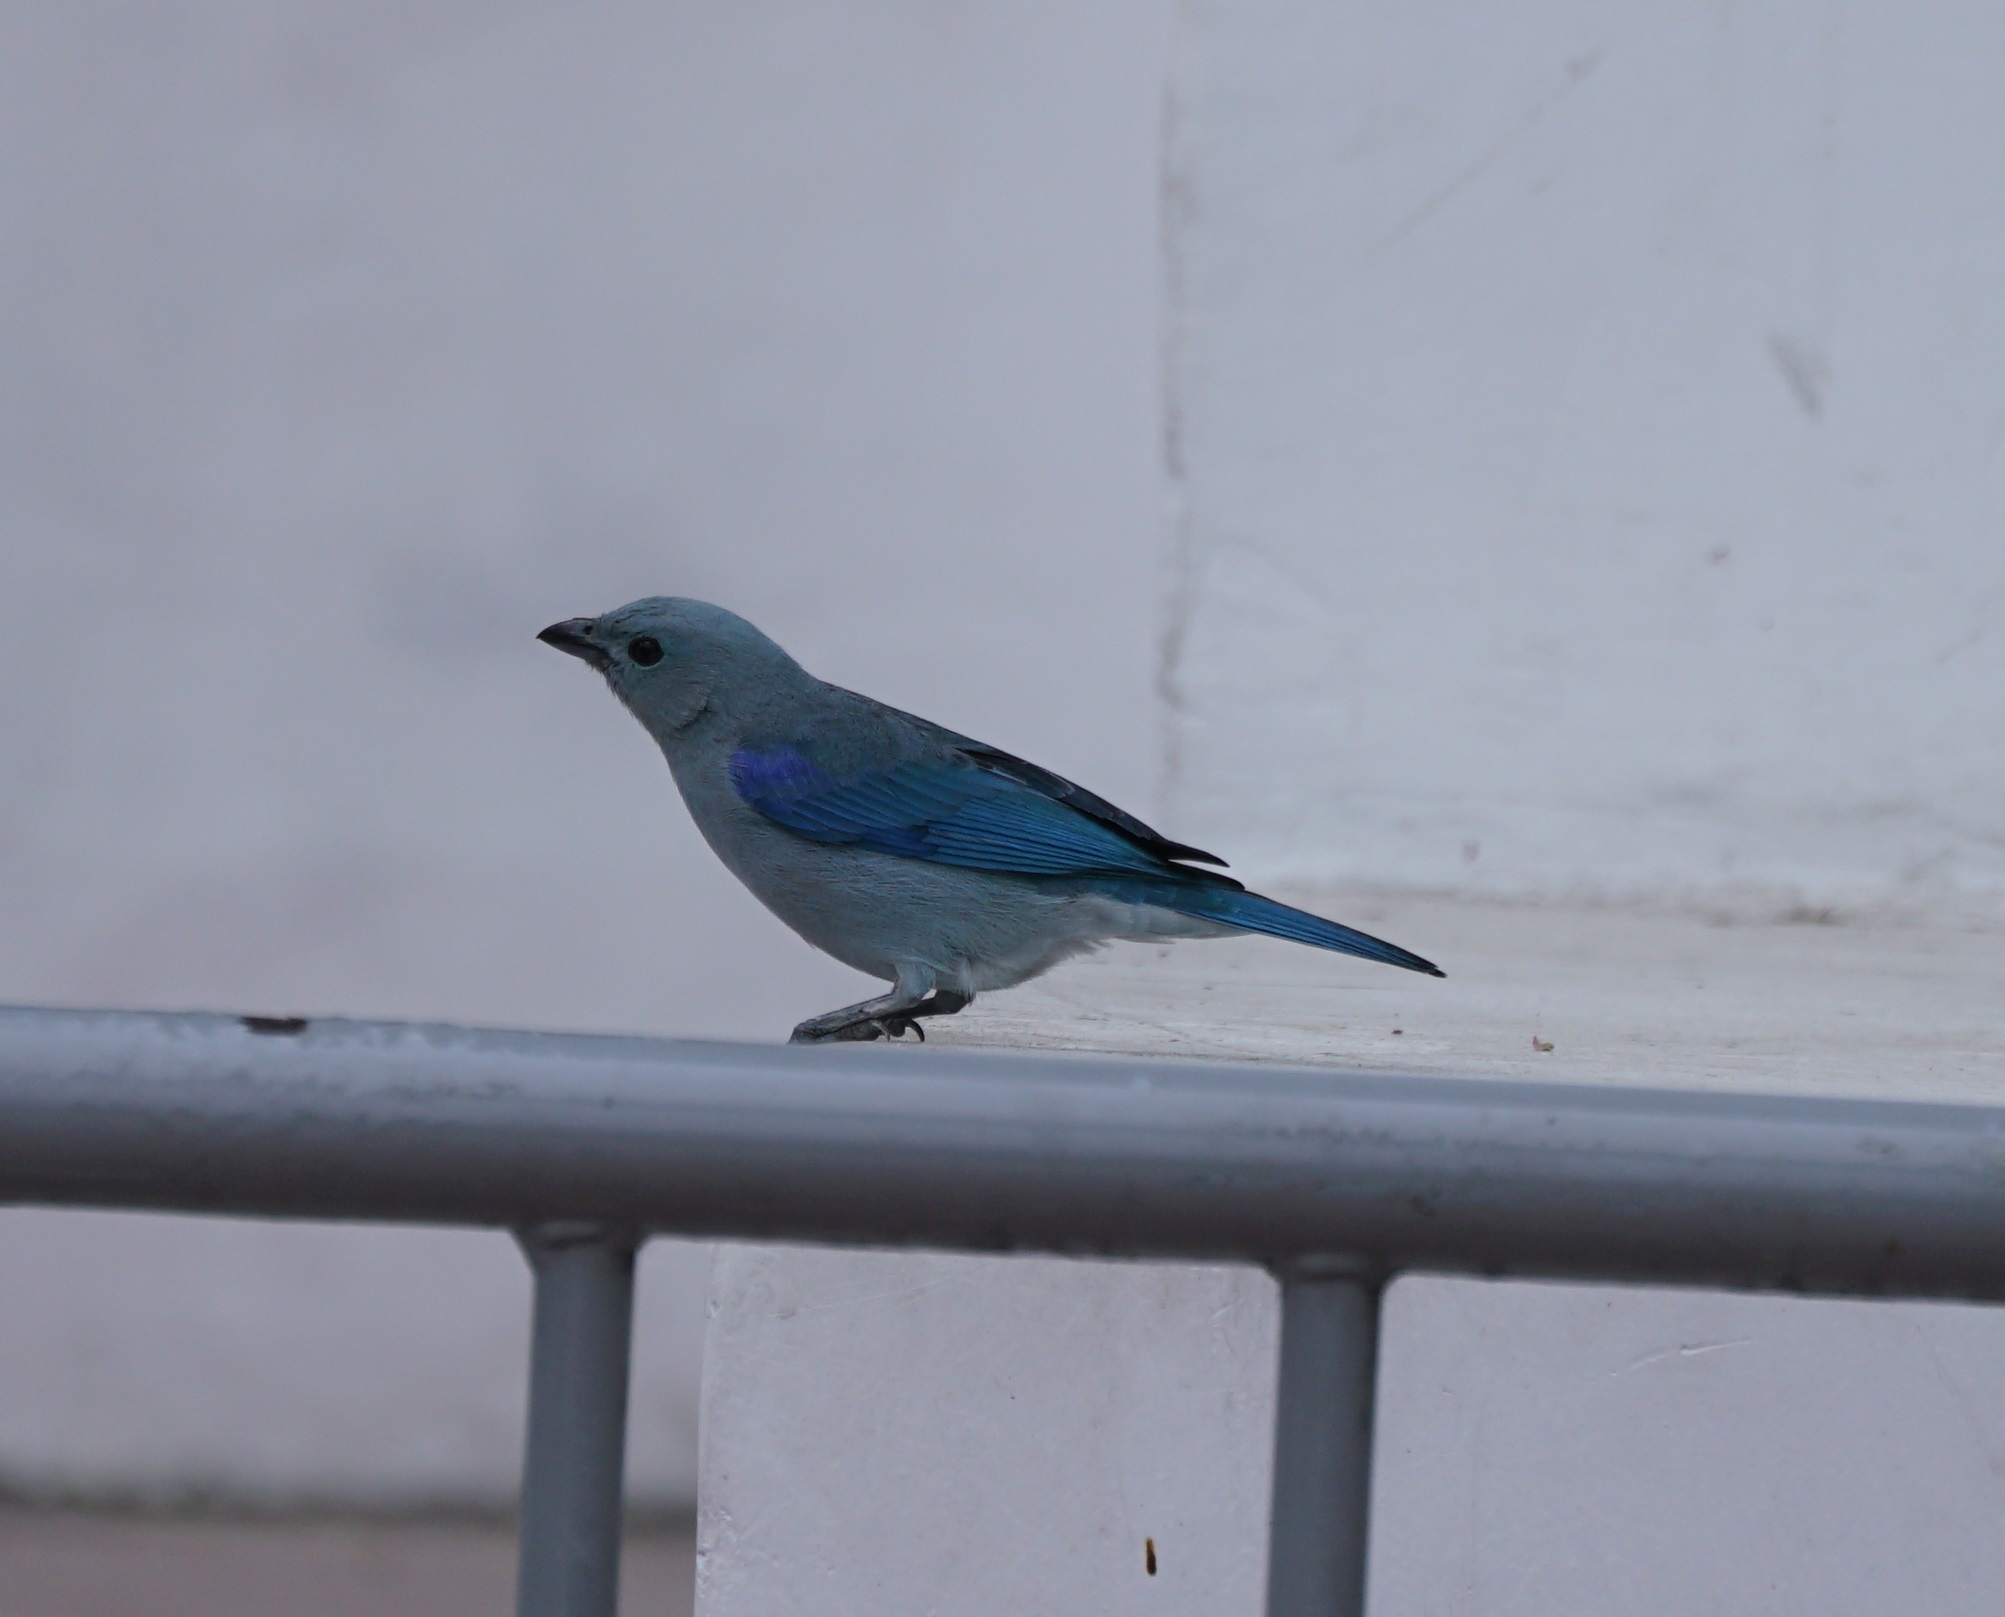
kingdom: Animalia
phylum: Chordata
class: Aves
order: Passeriformes
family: Thraupidae
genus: Thraupis
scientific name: Thraupis episcopus
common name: Blue-grey tanager
